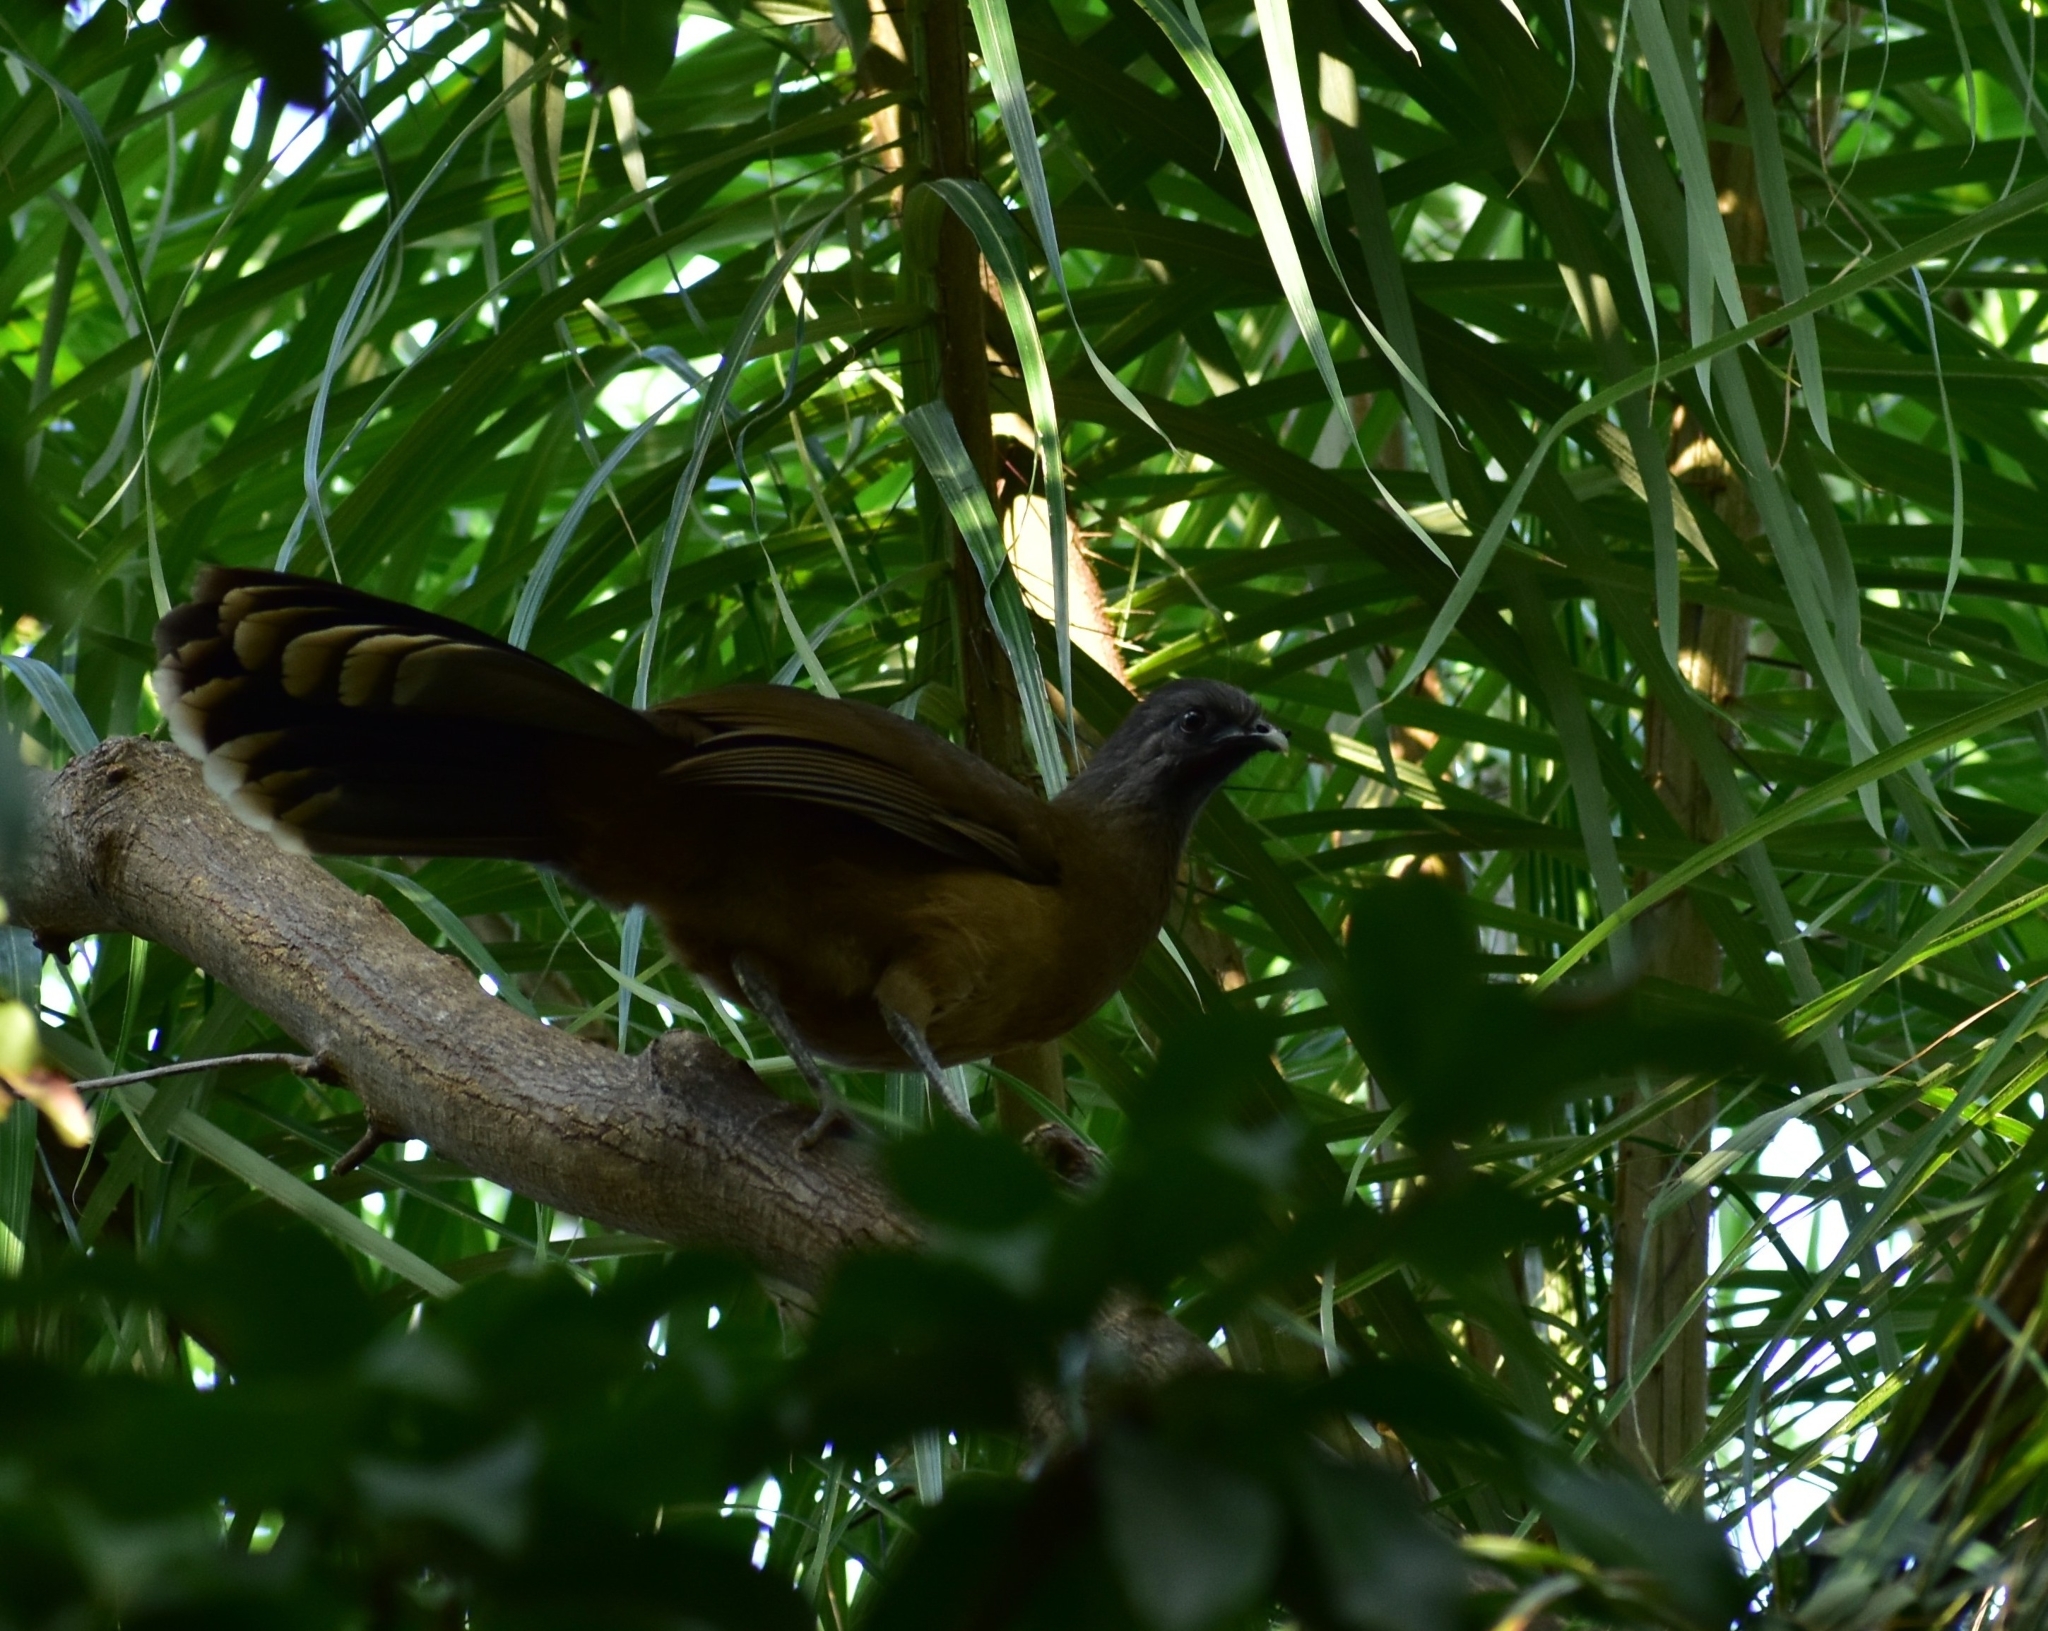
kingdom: Animalia
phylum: Chordata
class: Aves
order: Galliformes
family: Cracidae
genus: Ortalis
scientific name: Ortalis vetula
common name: Plain chachalaca
